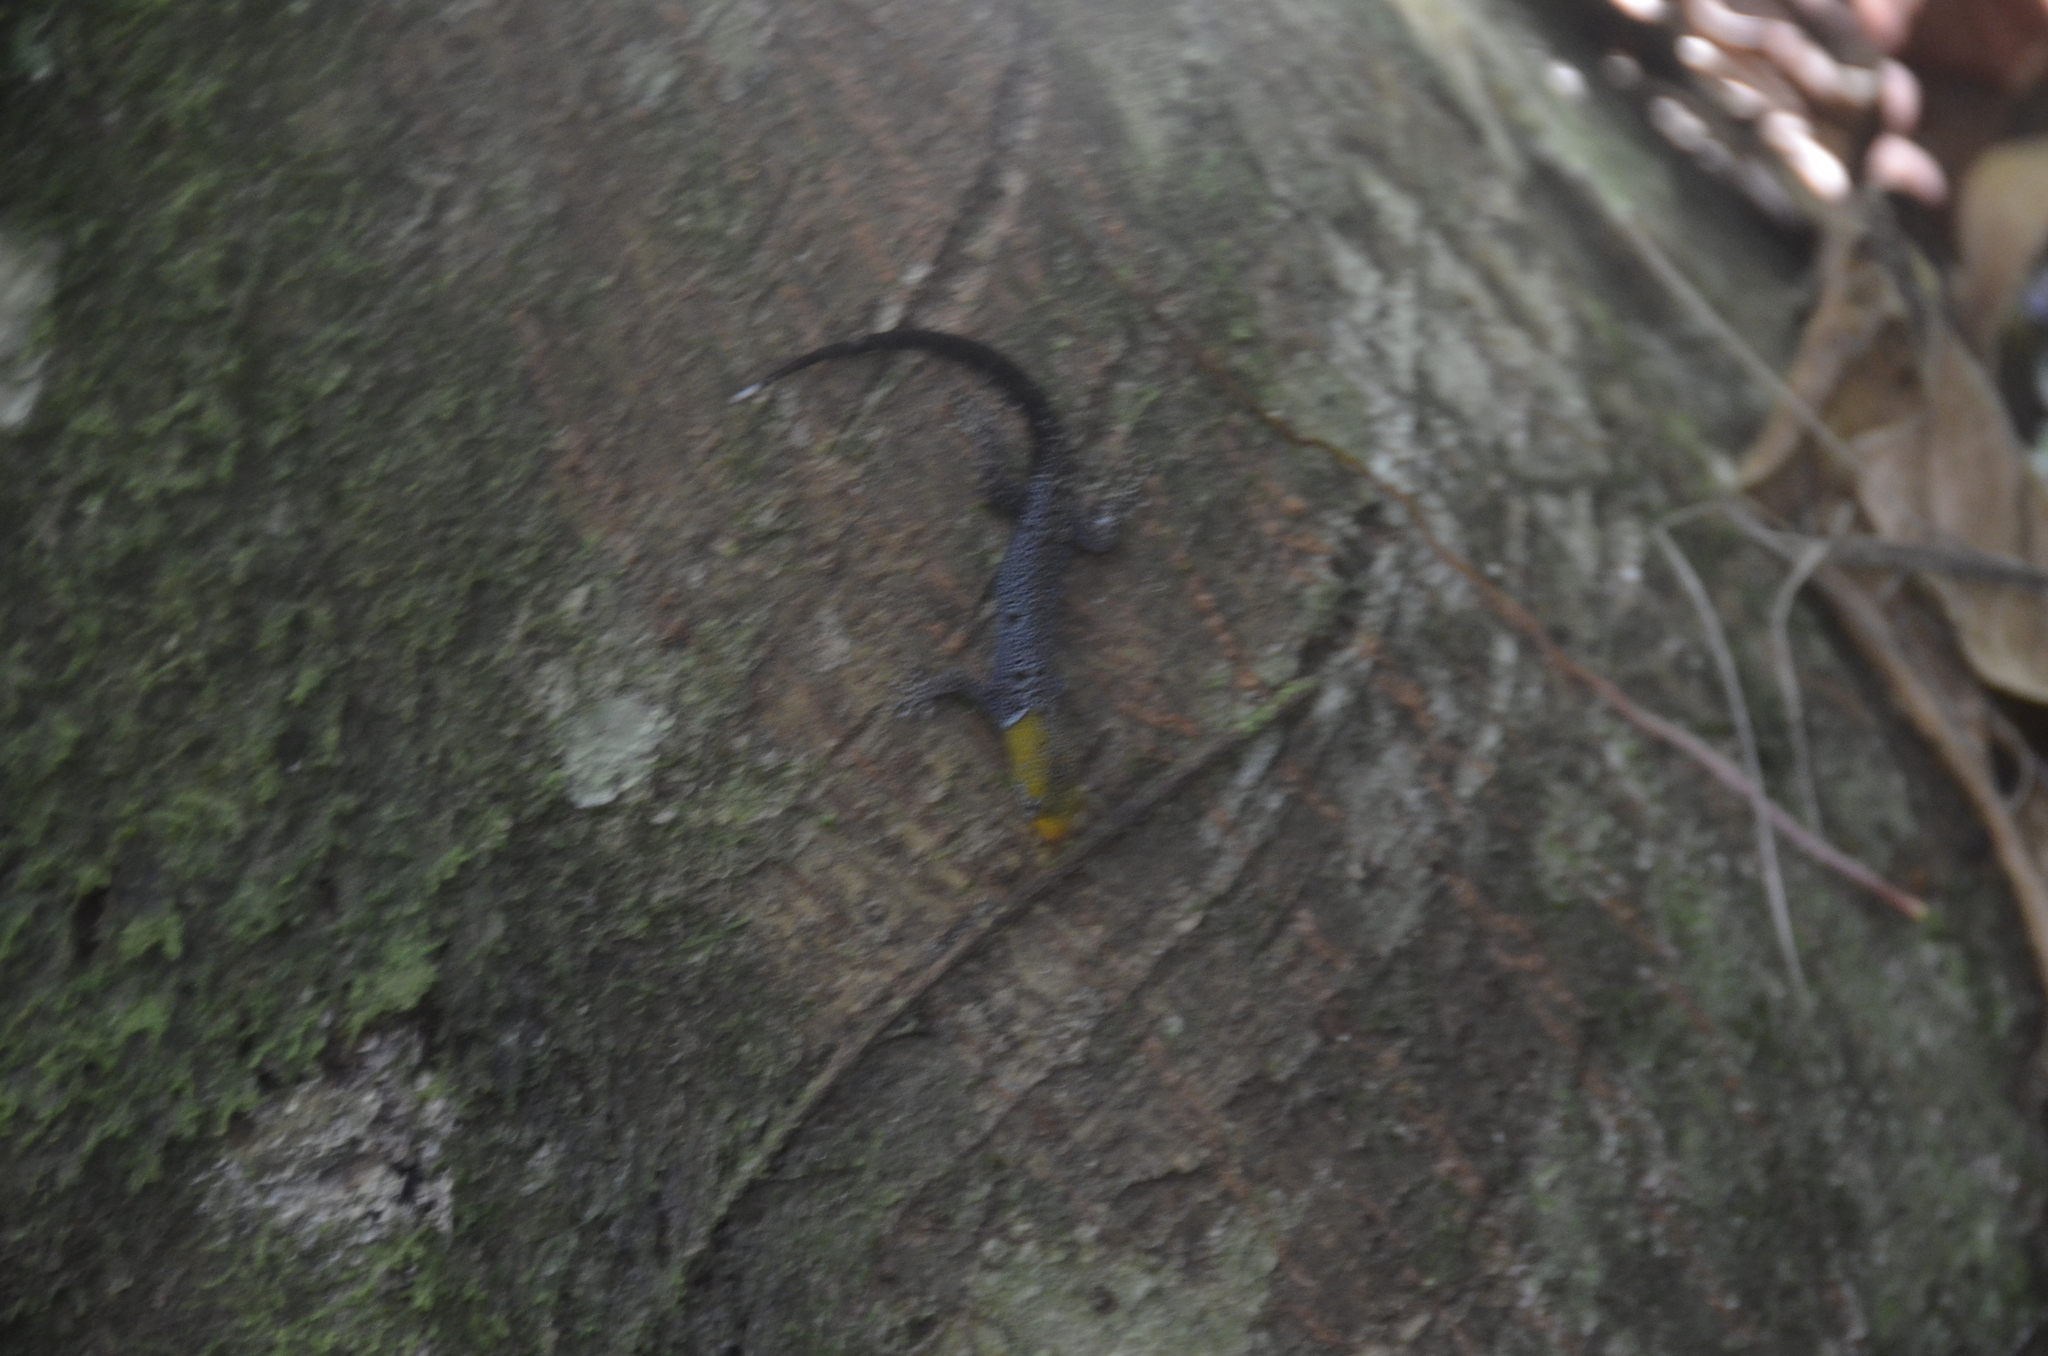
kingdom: Animalia
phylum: Chordata
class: Squamata
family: Sphaerodactylidae
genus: Gonatodes
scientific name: Gonatodes albogularis
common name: Yellow-headed gecko
